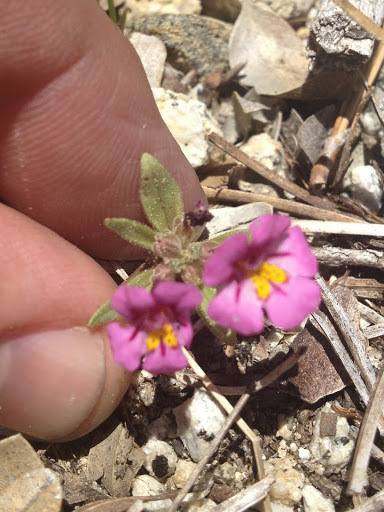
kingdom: Plantae
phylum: Tracheophyta
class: Magnoliopsida
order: Lamiales
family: Phrymaceae
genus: Diplacus
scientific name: Diplacus torreyi
